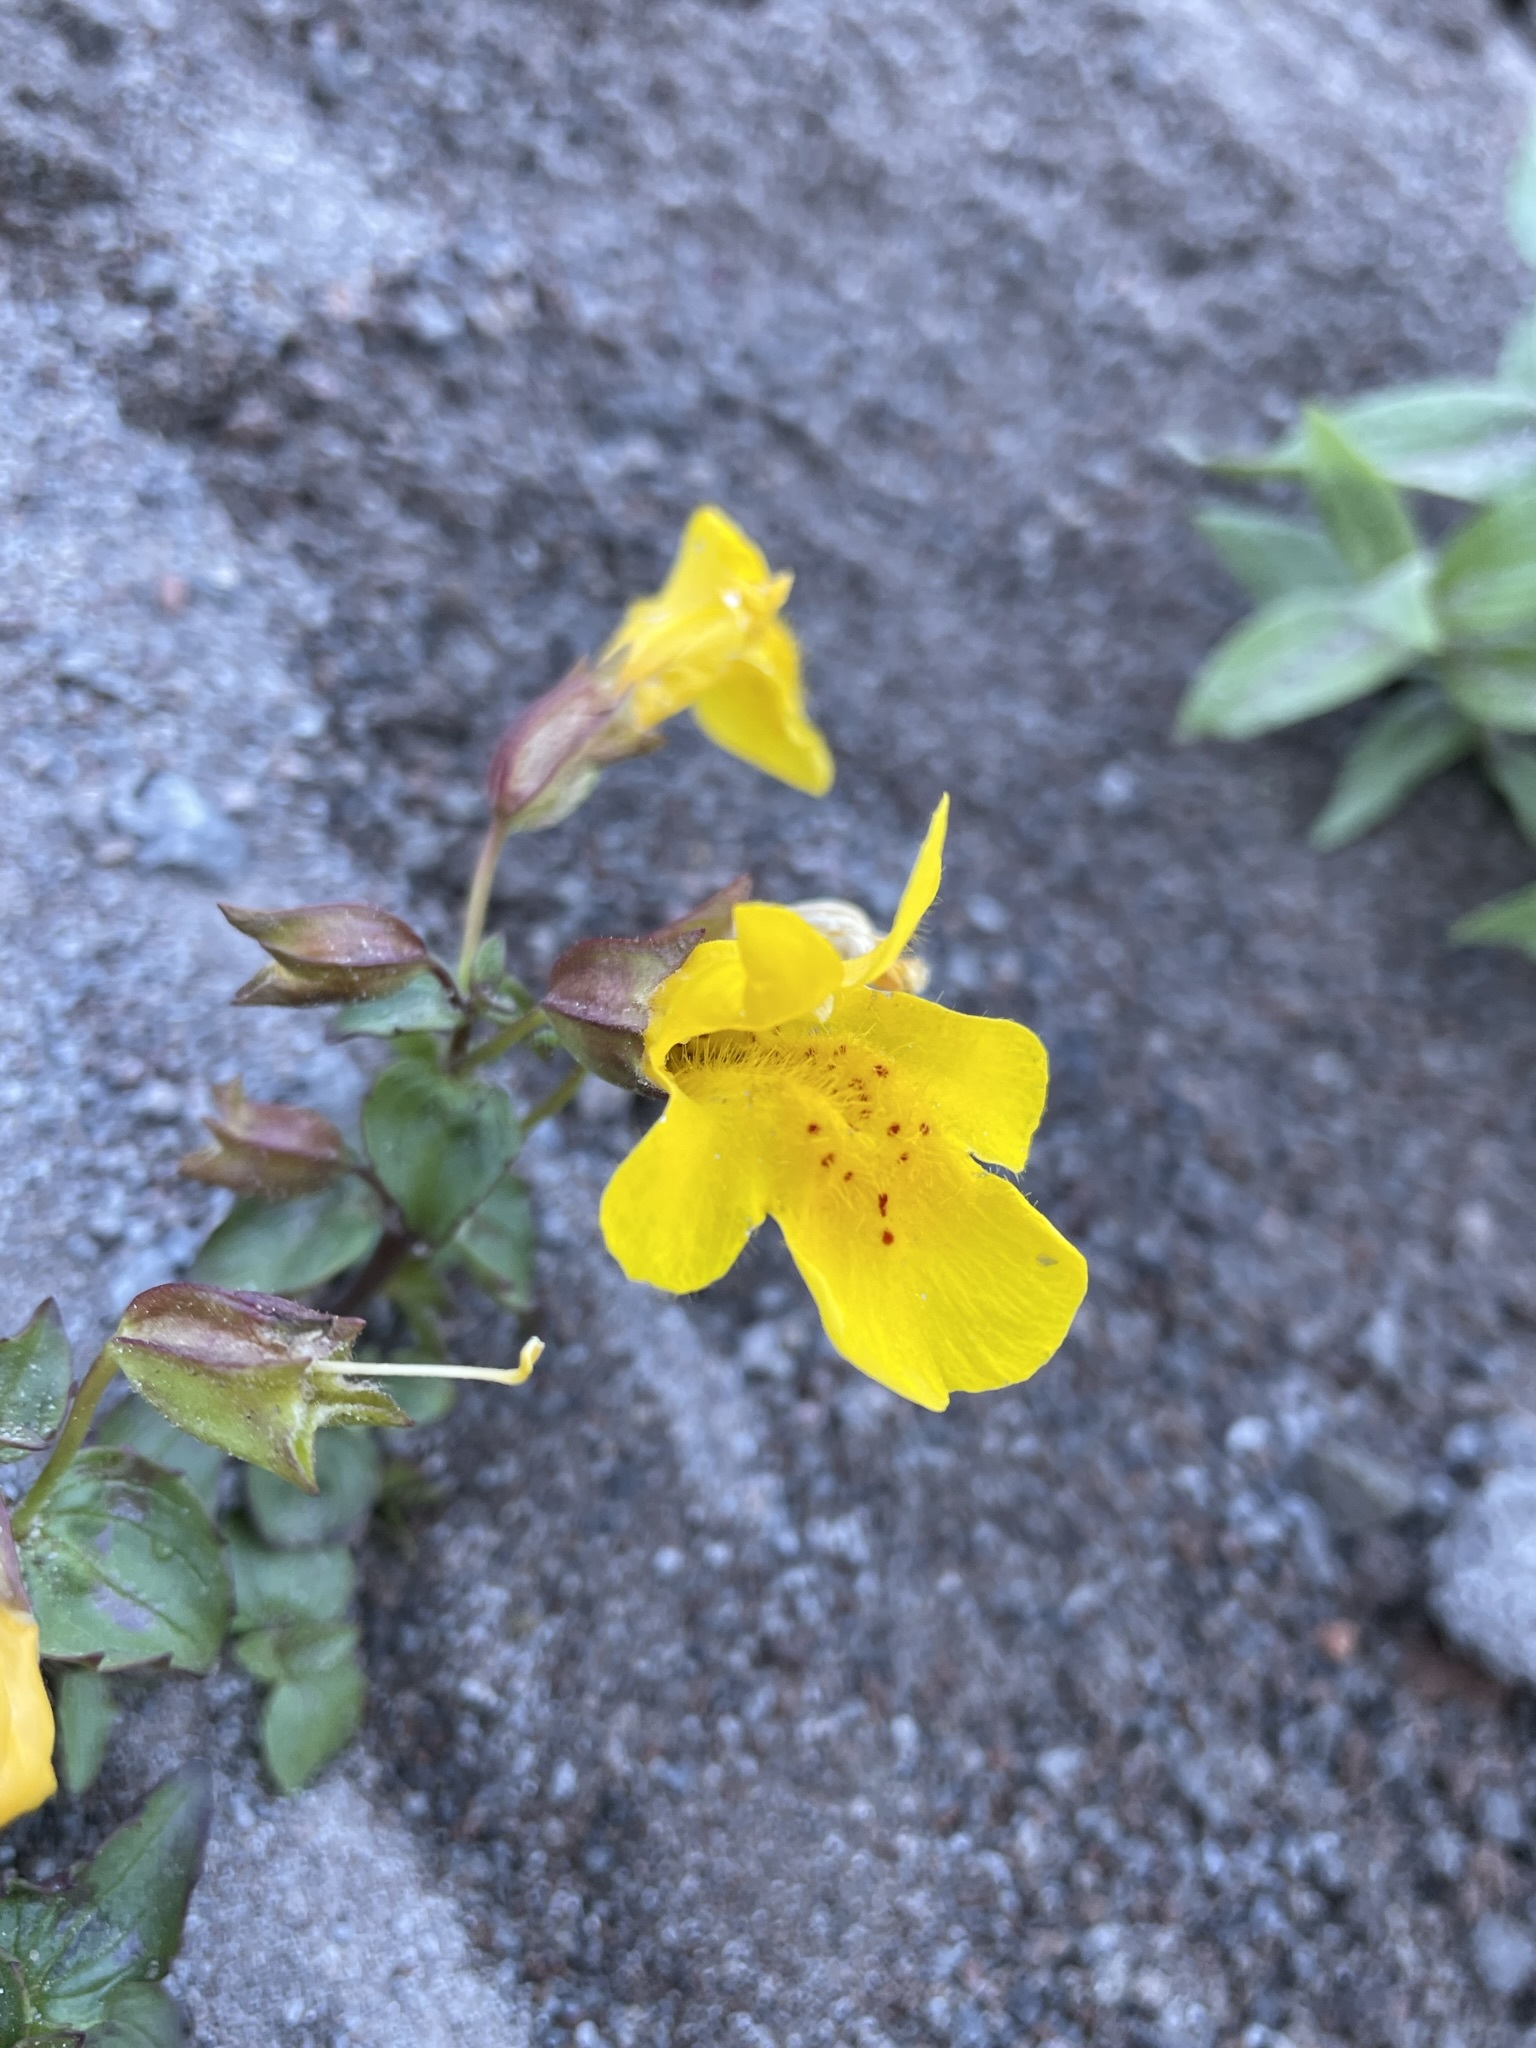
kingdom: Plantae
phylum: Tracheophyta
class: Magnoliopsida
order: Lamiales
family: Phrymaceae
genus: Erythranthe
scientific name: Erythranthe tilingii
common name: Subalpine monkey-flower
